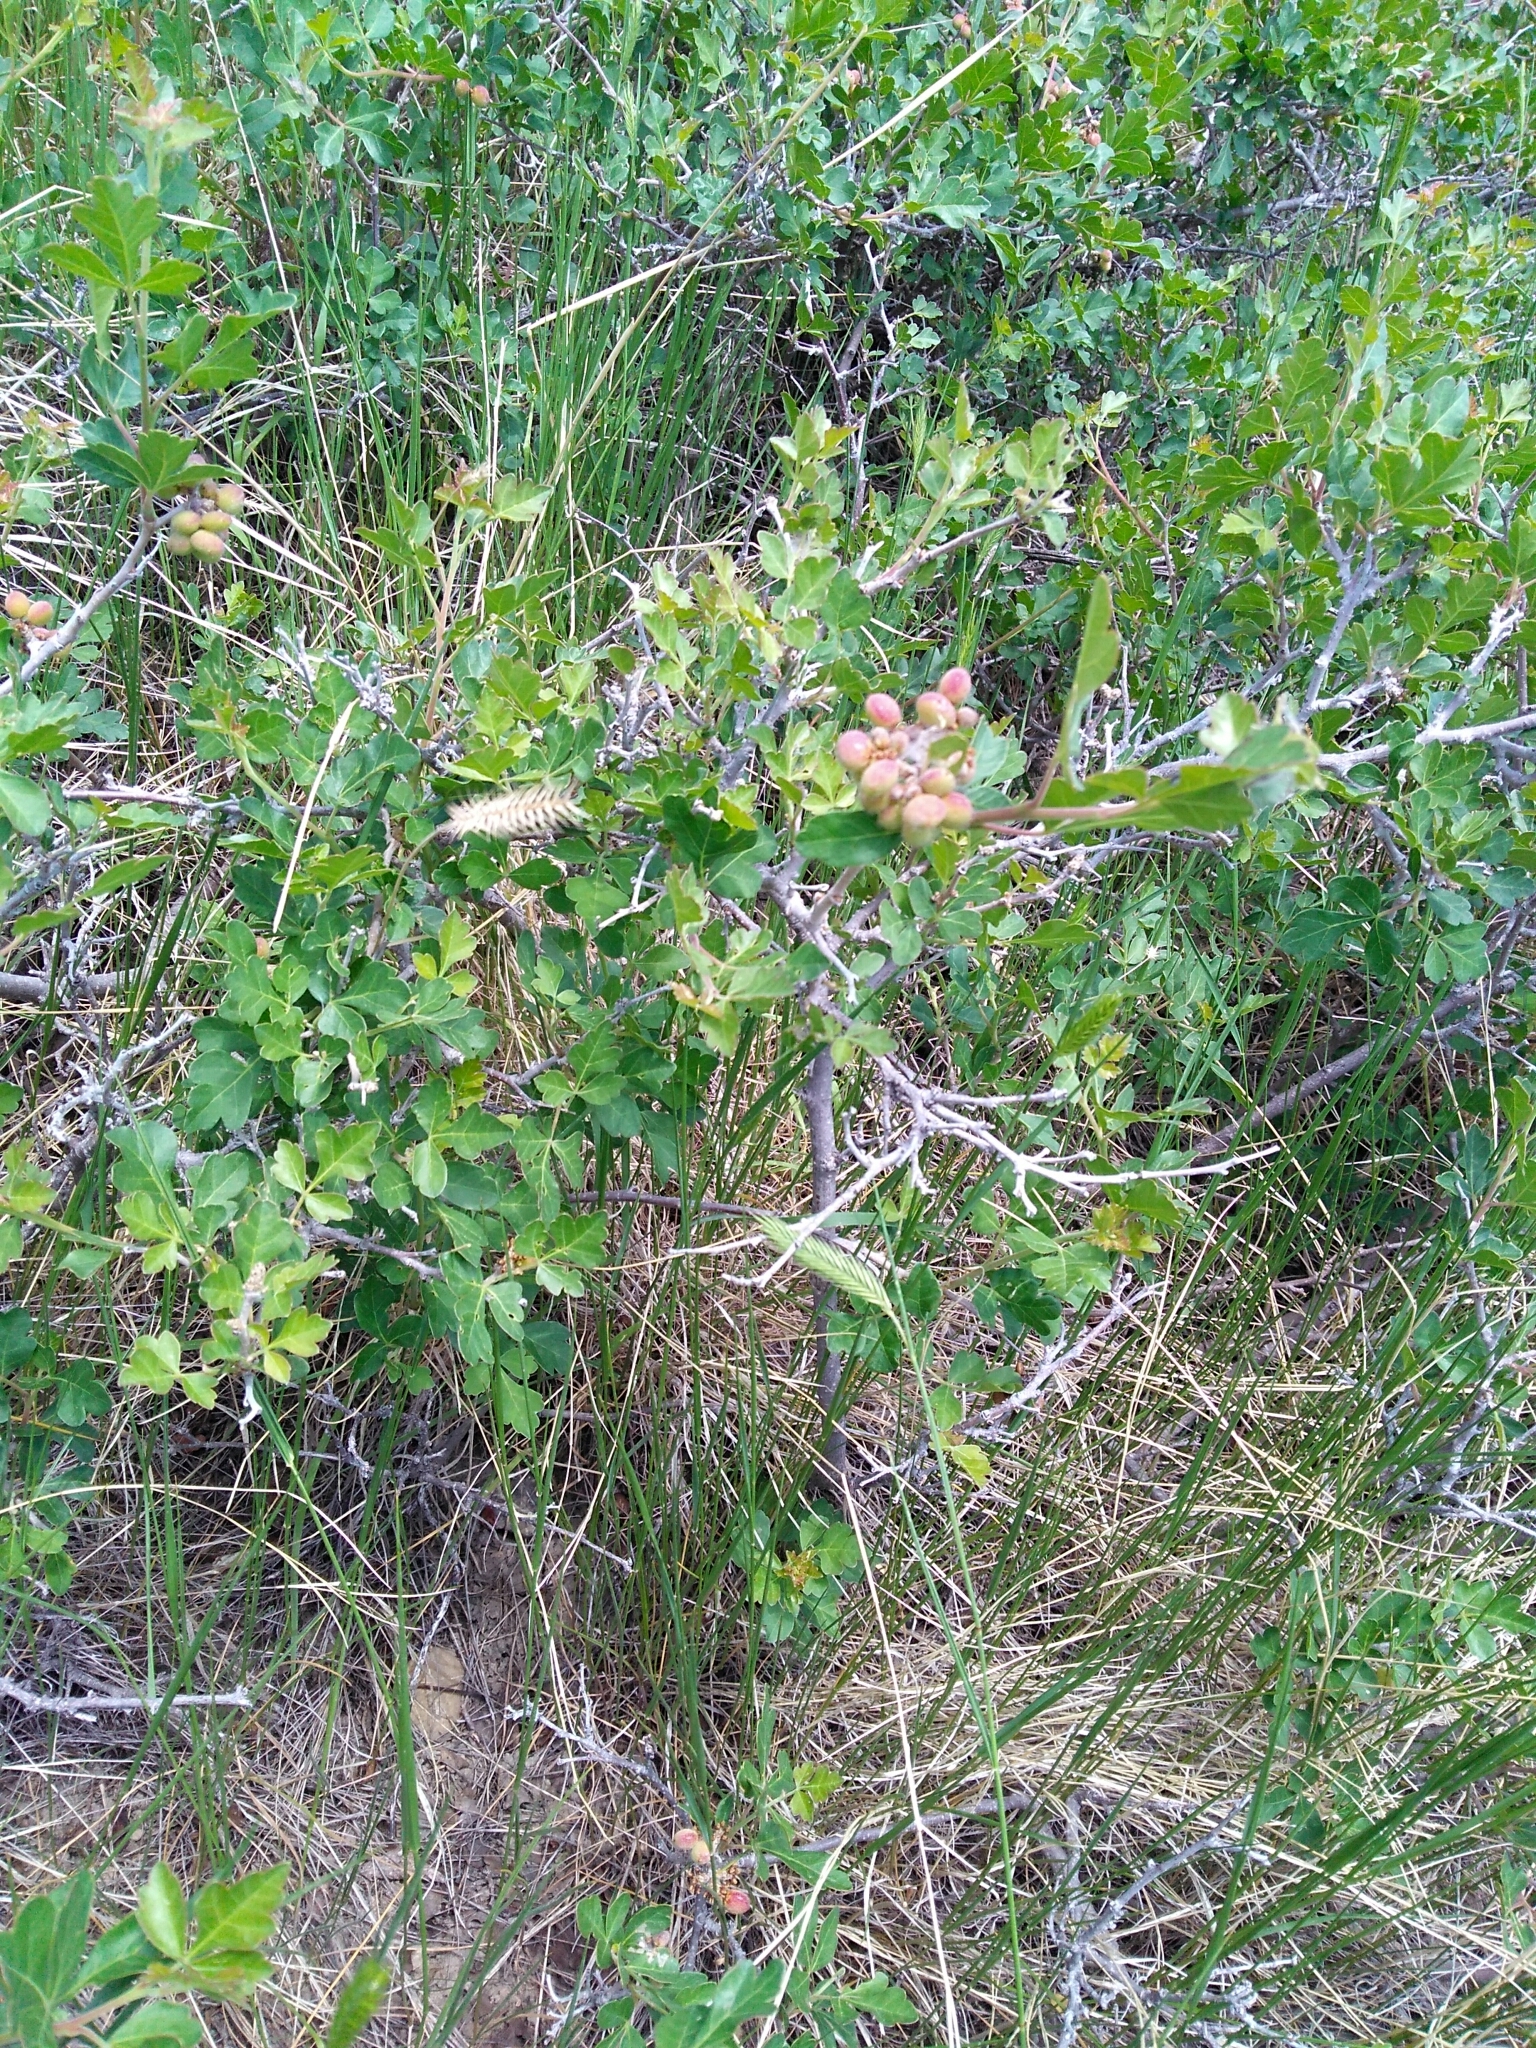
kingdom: Plantae
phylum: Tracheophyta
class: Magnoliopsida
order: Sapindales
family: Anacardiaceae
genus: Rhus
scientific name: Rhus aromatica
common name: Aromatic sumac
